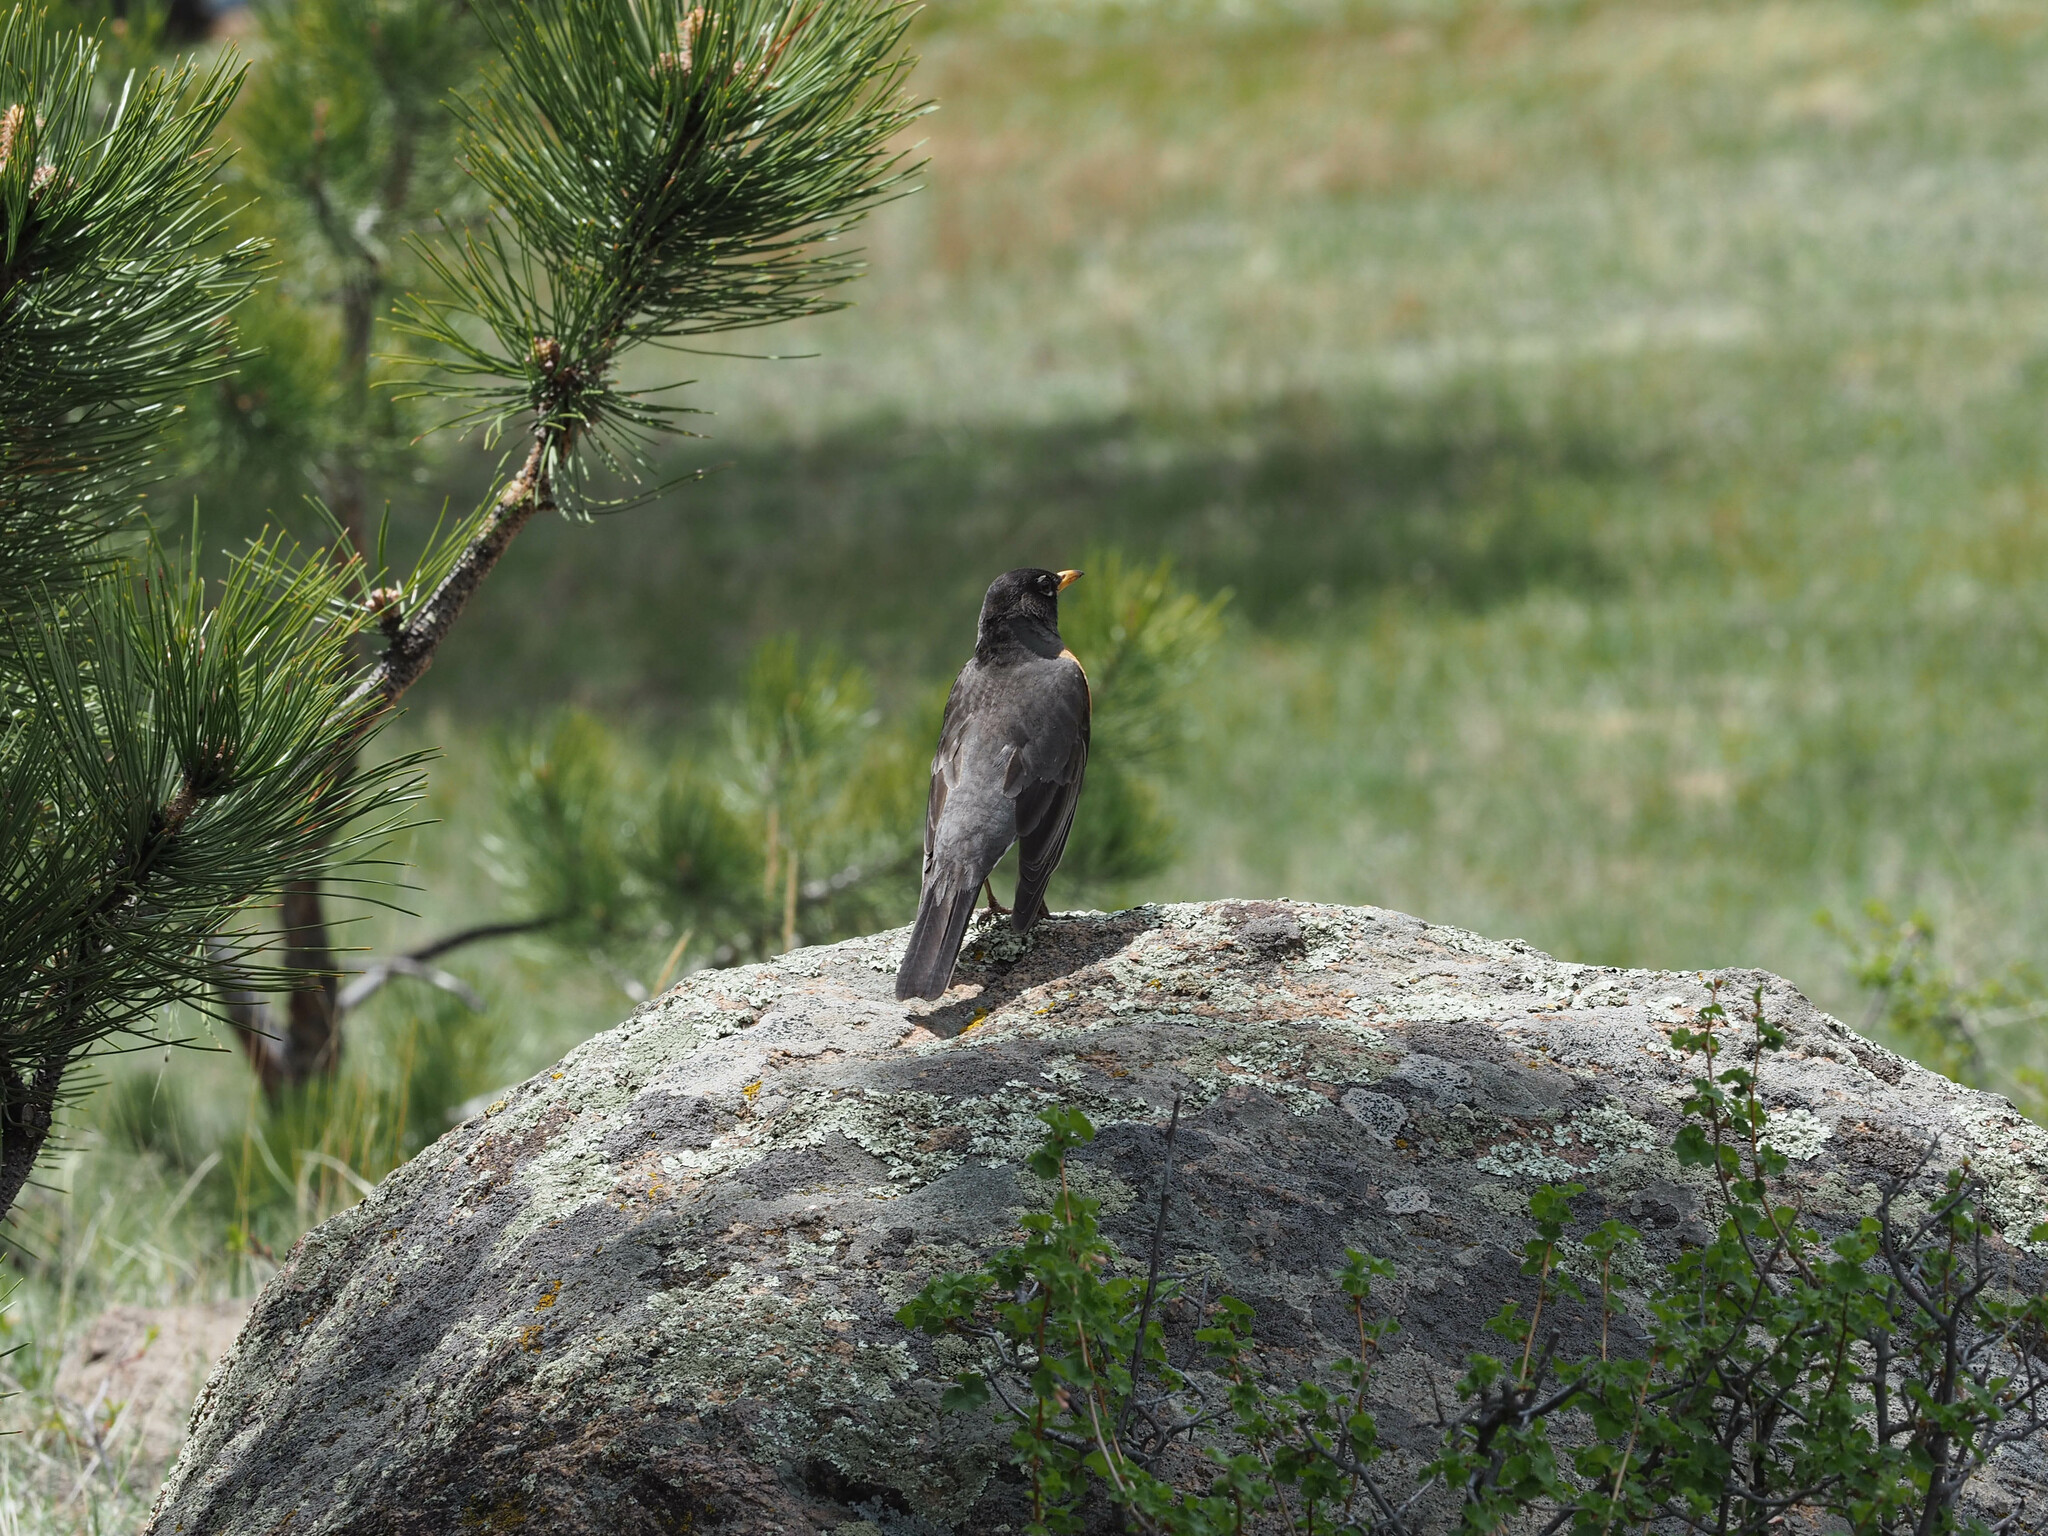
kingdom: Animalia
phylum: Chordata
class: Aves
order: Passeriformes
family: Turdidae
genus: Turdus
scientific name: Turdus migratorius
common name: American robin
